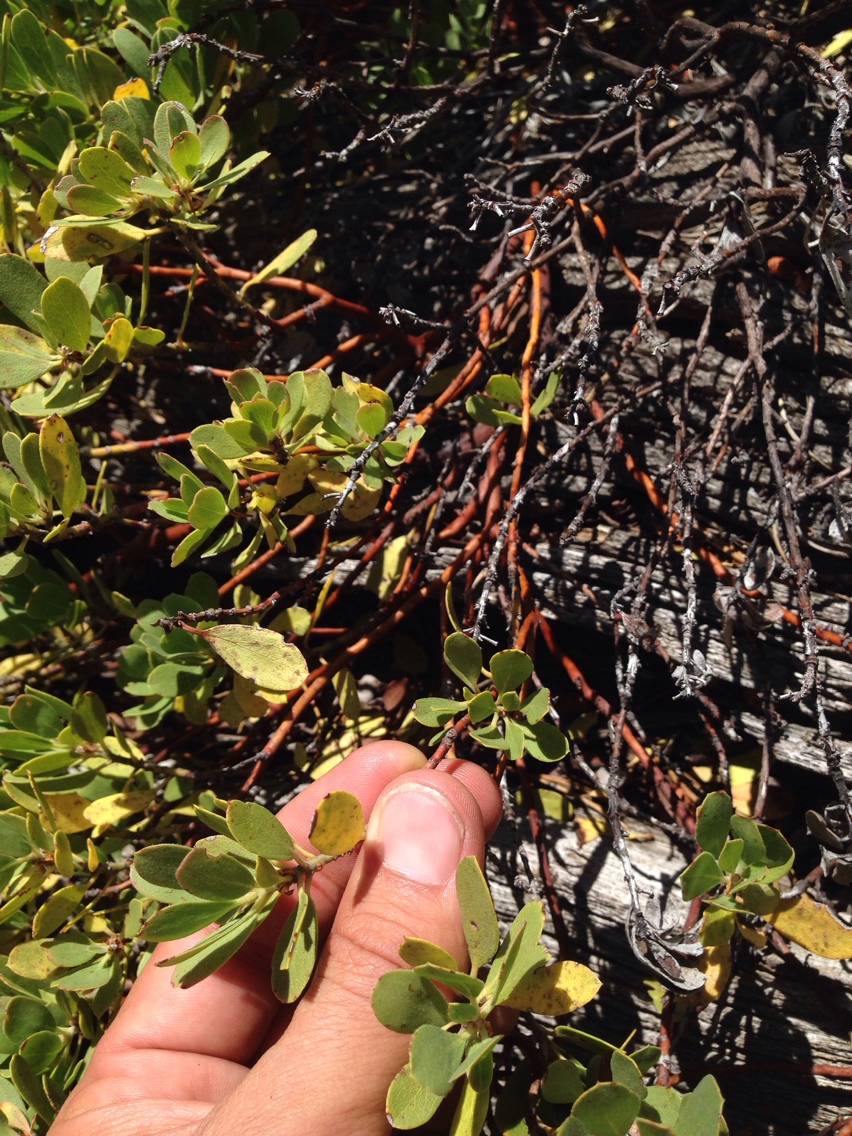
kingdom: Plantae
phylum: Tracheophyta
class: Magnoliopsida
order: Ericales
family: Ericaceae
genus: Arctostaphylos
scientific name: Arctostaphylos nevadensis
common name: Pinemat manzanita
